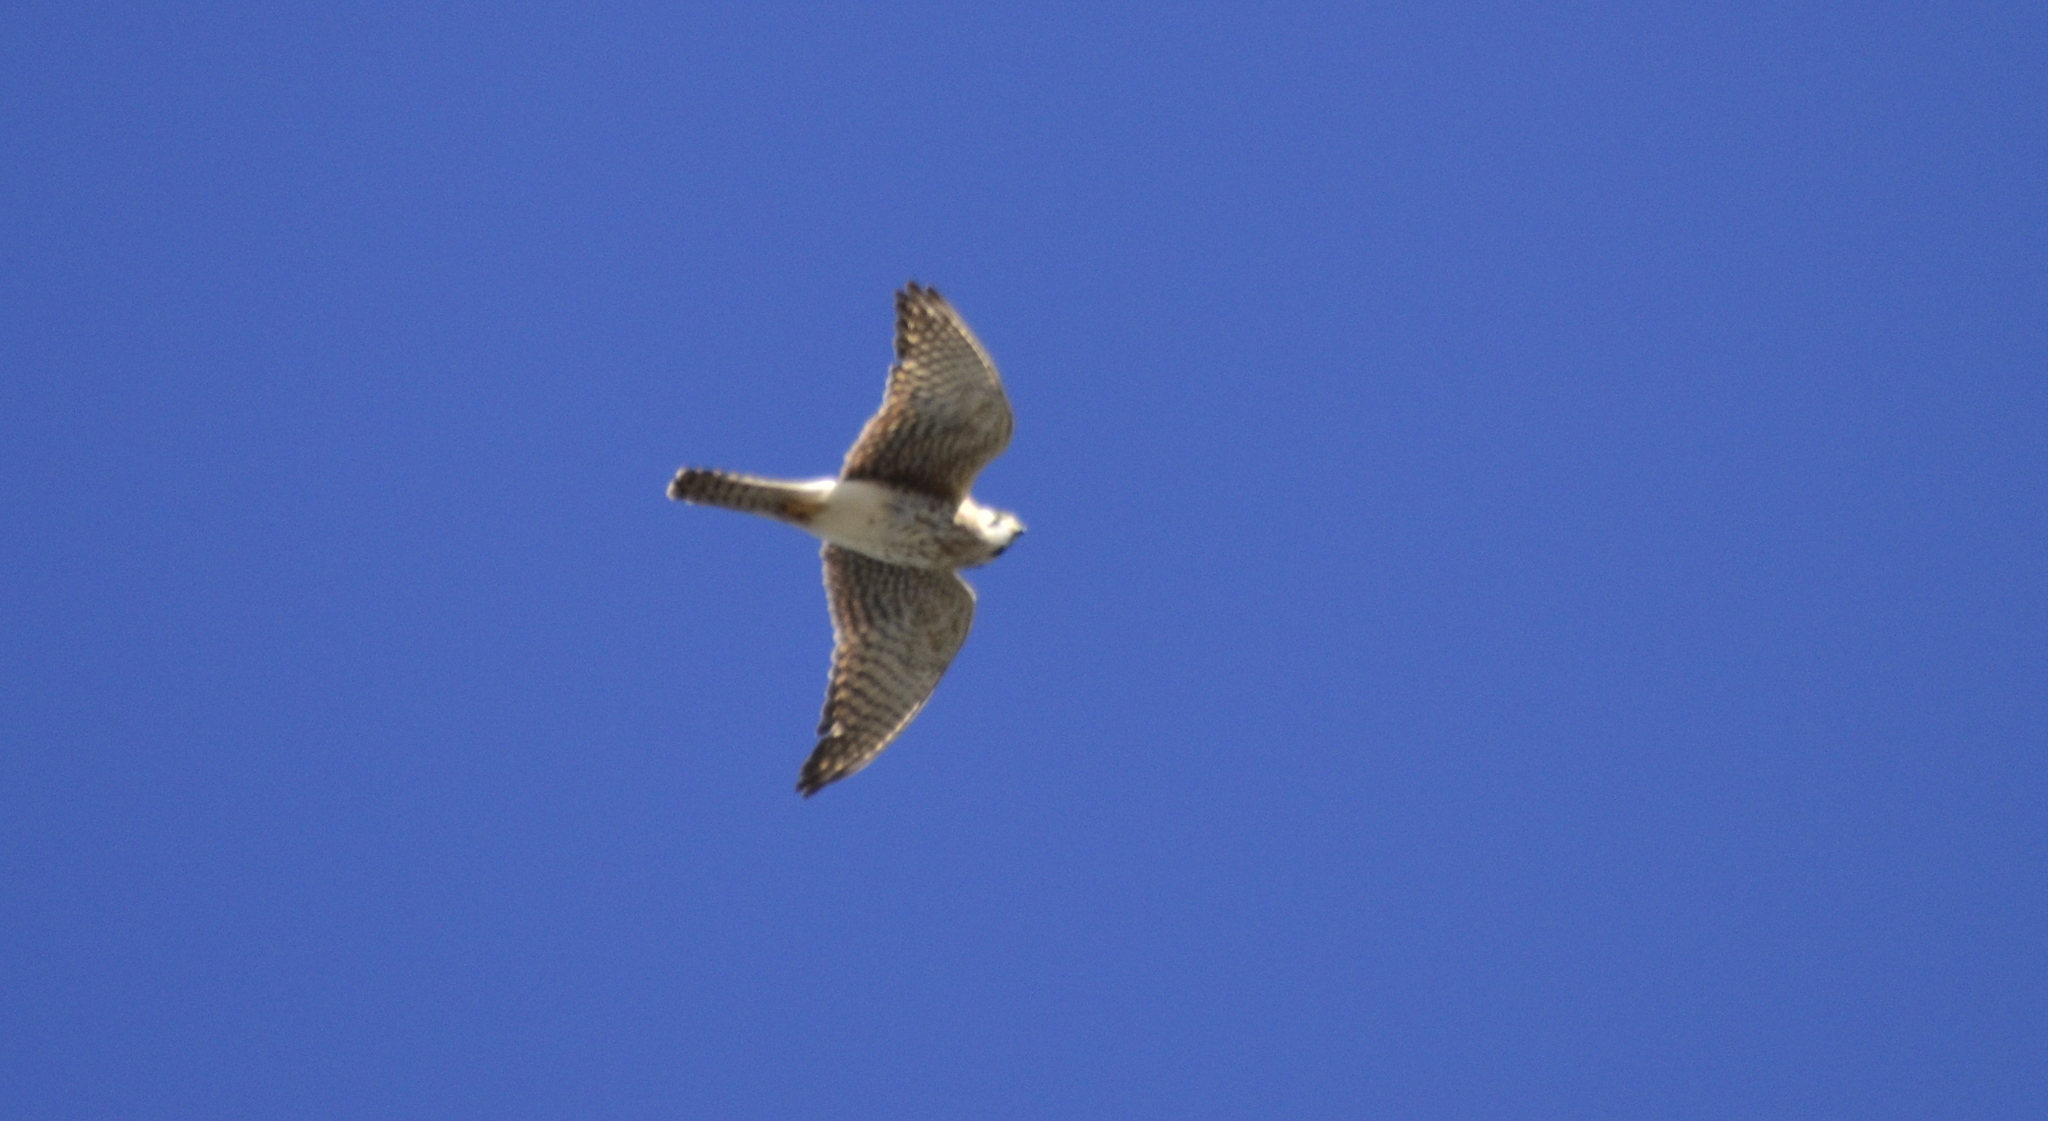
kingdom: Animalia
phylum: Chordata
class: Aves
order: Falconiformes
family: Falconidae
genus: Falco
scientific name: Falco sparverius
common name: American kestrel
